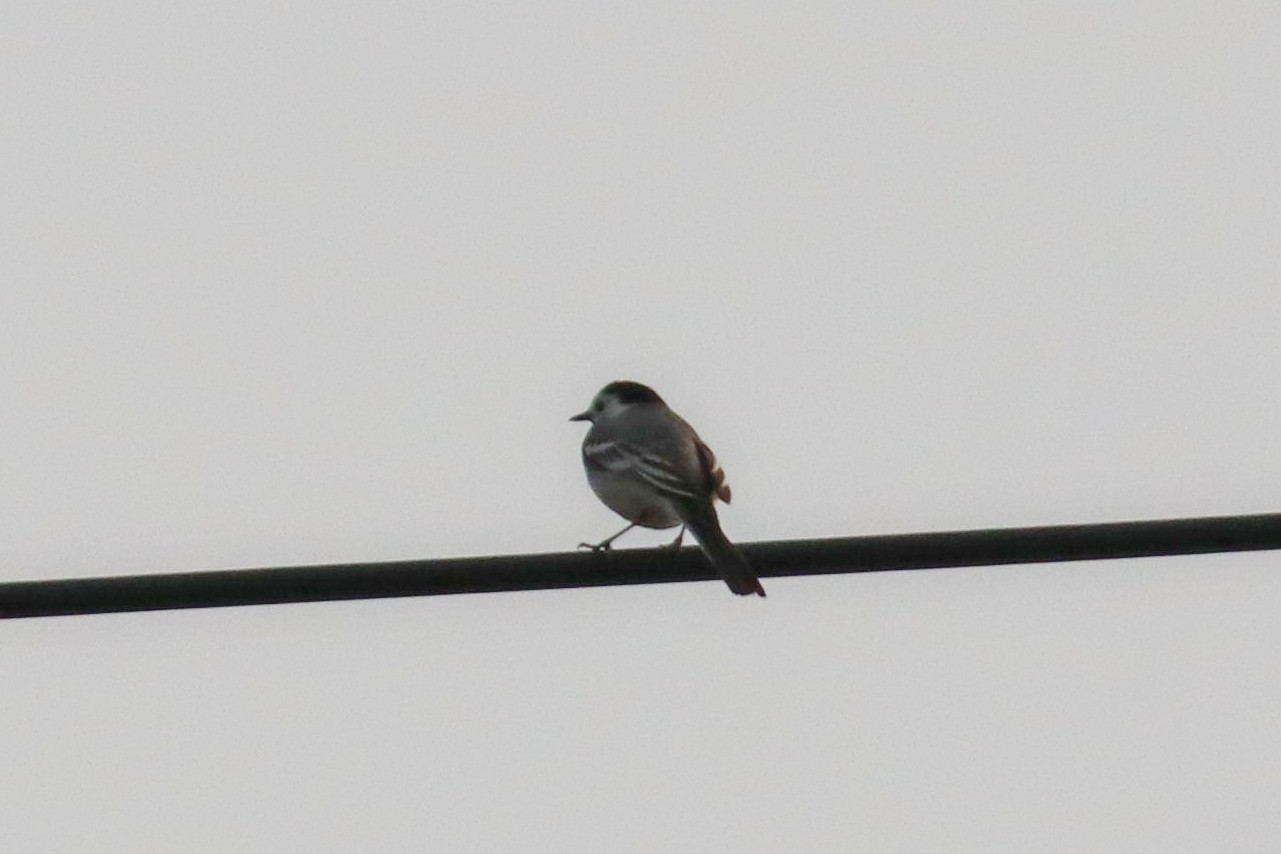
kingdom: Animalia
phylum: Chordata
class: Aves
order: Passeriformes
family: Motacillidae
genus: Motacilla
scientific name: Motacilla alba
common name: White wagtail
